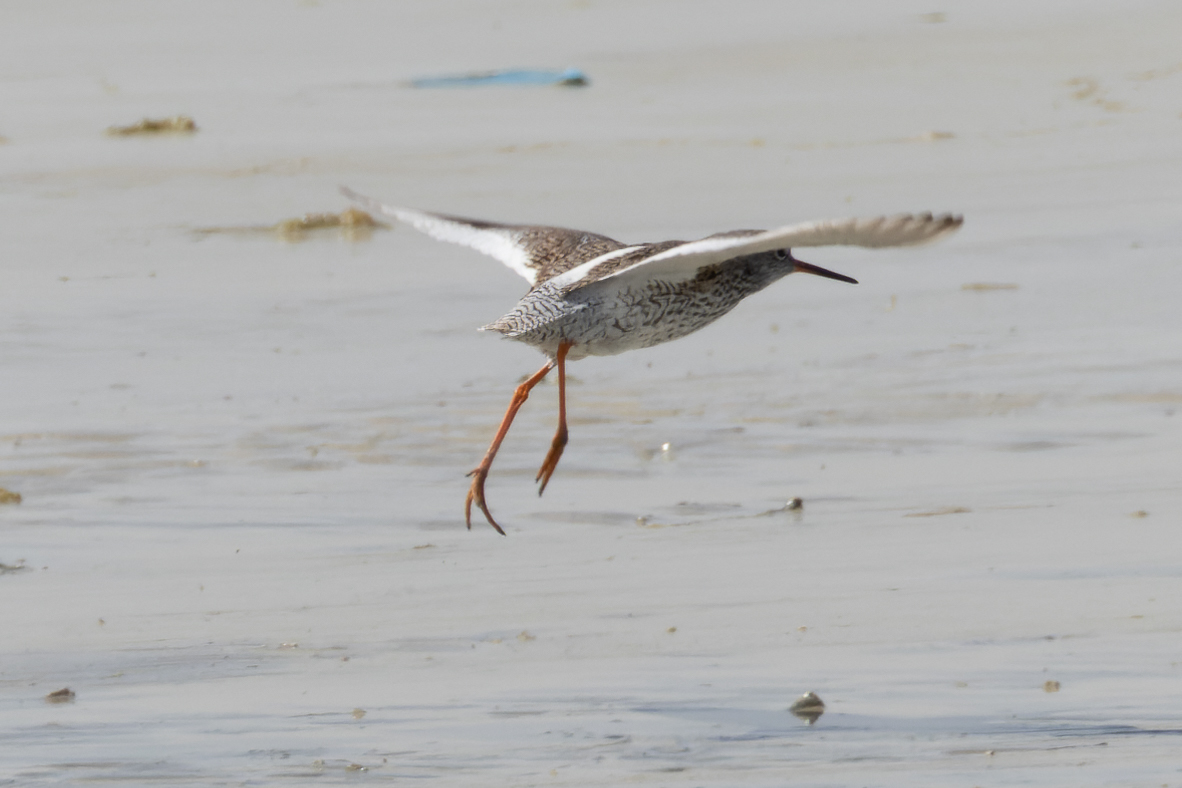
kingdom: Animalia
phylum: Chordata
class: Aves
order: Charadriiformes
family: Scolopacidae
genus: Tringa
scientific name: Tringa totanus
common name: Common redshank
